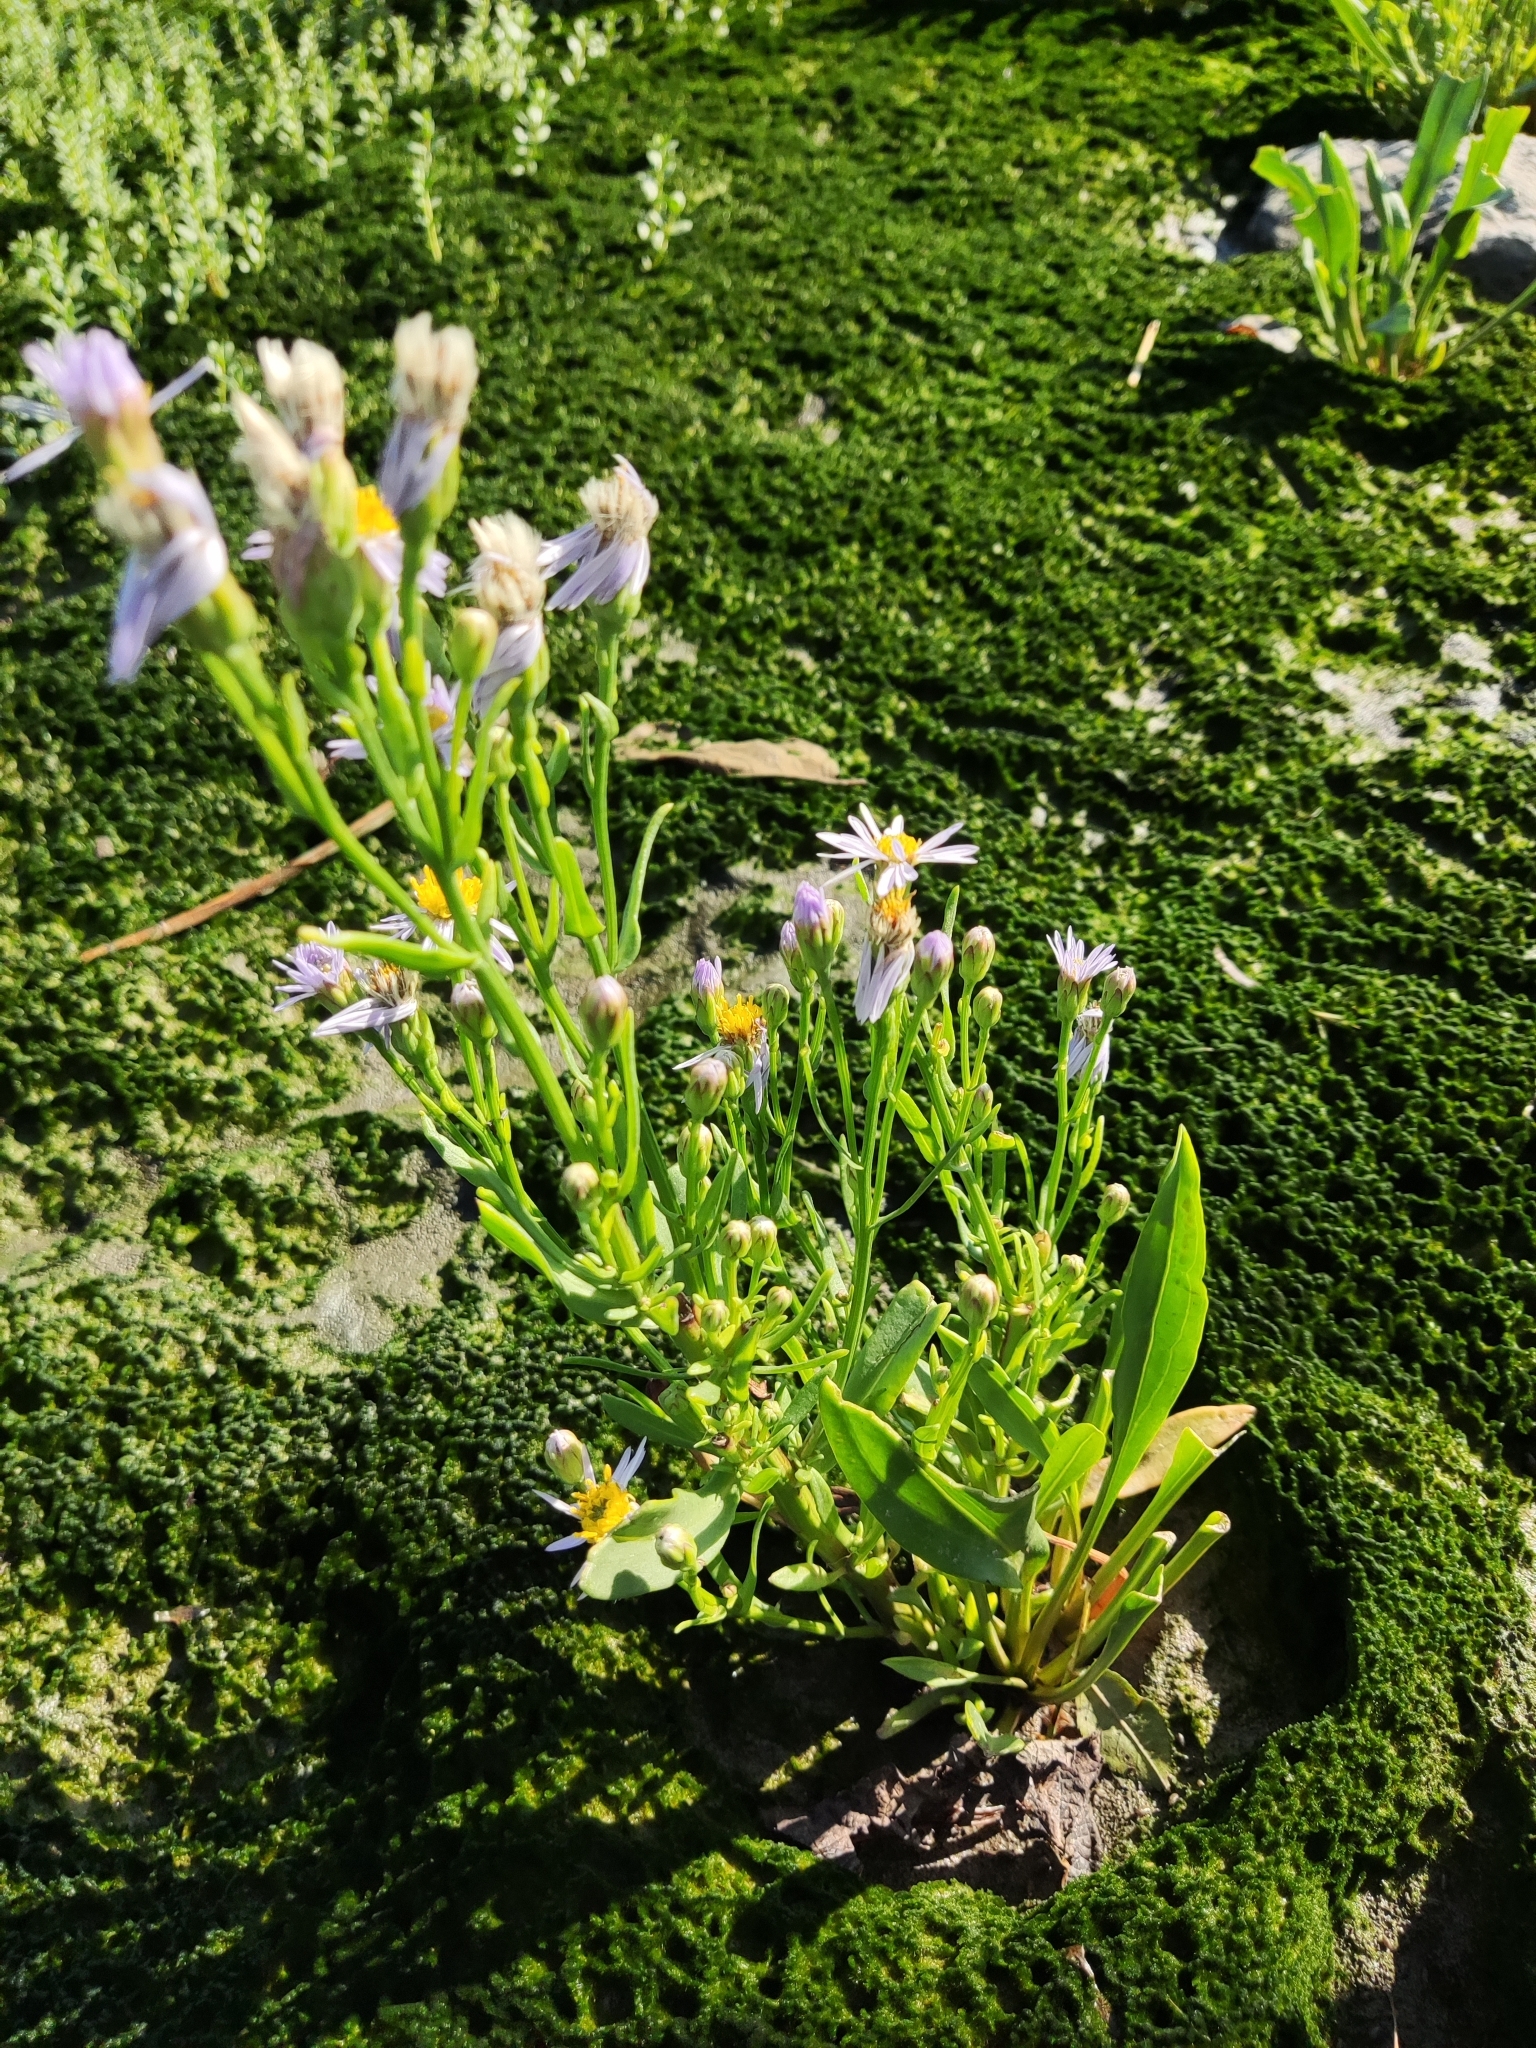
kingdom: Plantae
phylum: Tracheophyta
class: Magnoliopsida
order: Asterales
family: Asteraceae
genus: Tripolium
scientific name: Tripolium pannonicum
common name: Sea aster
